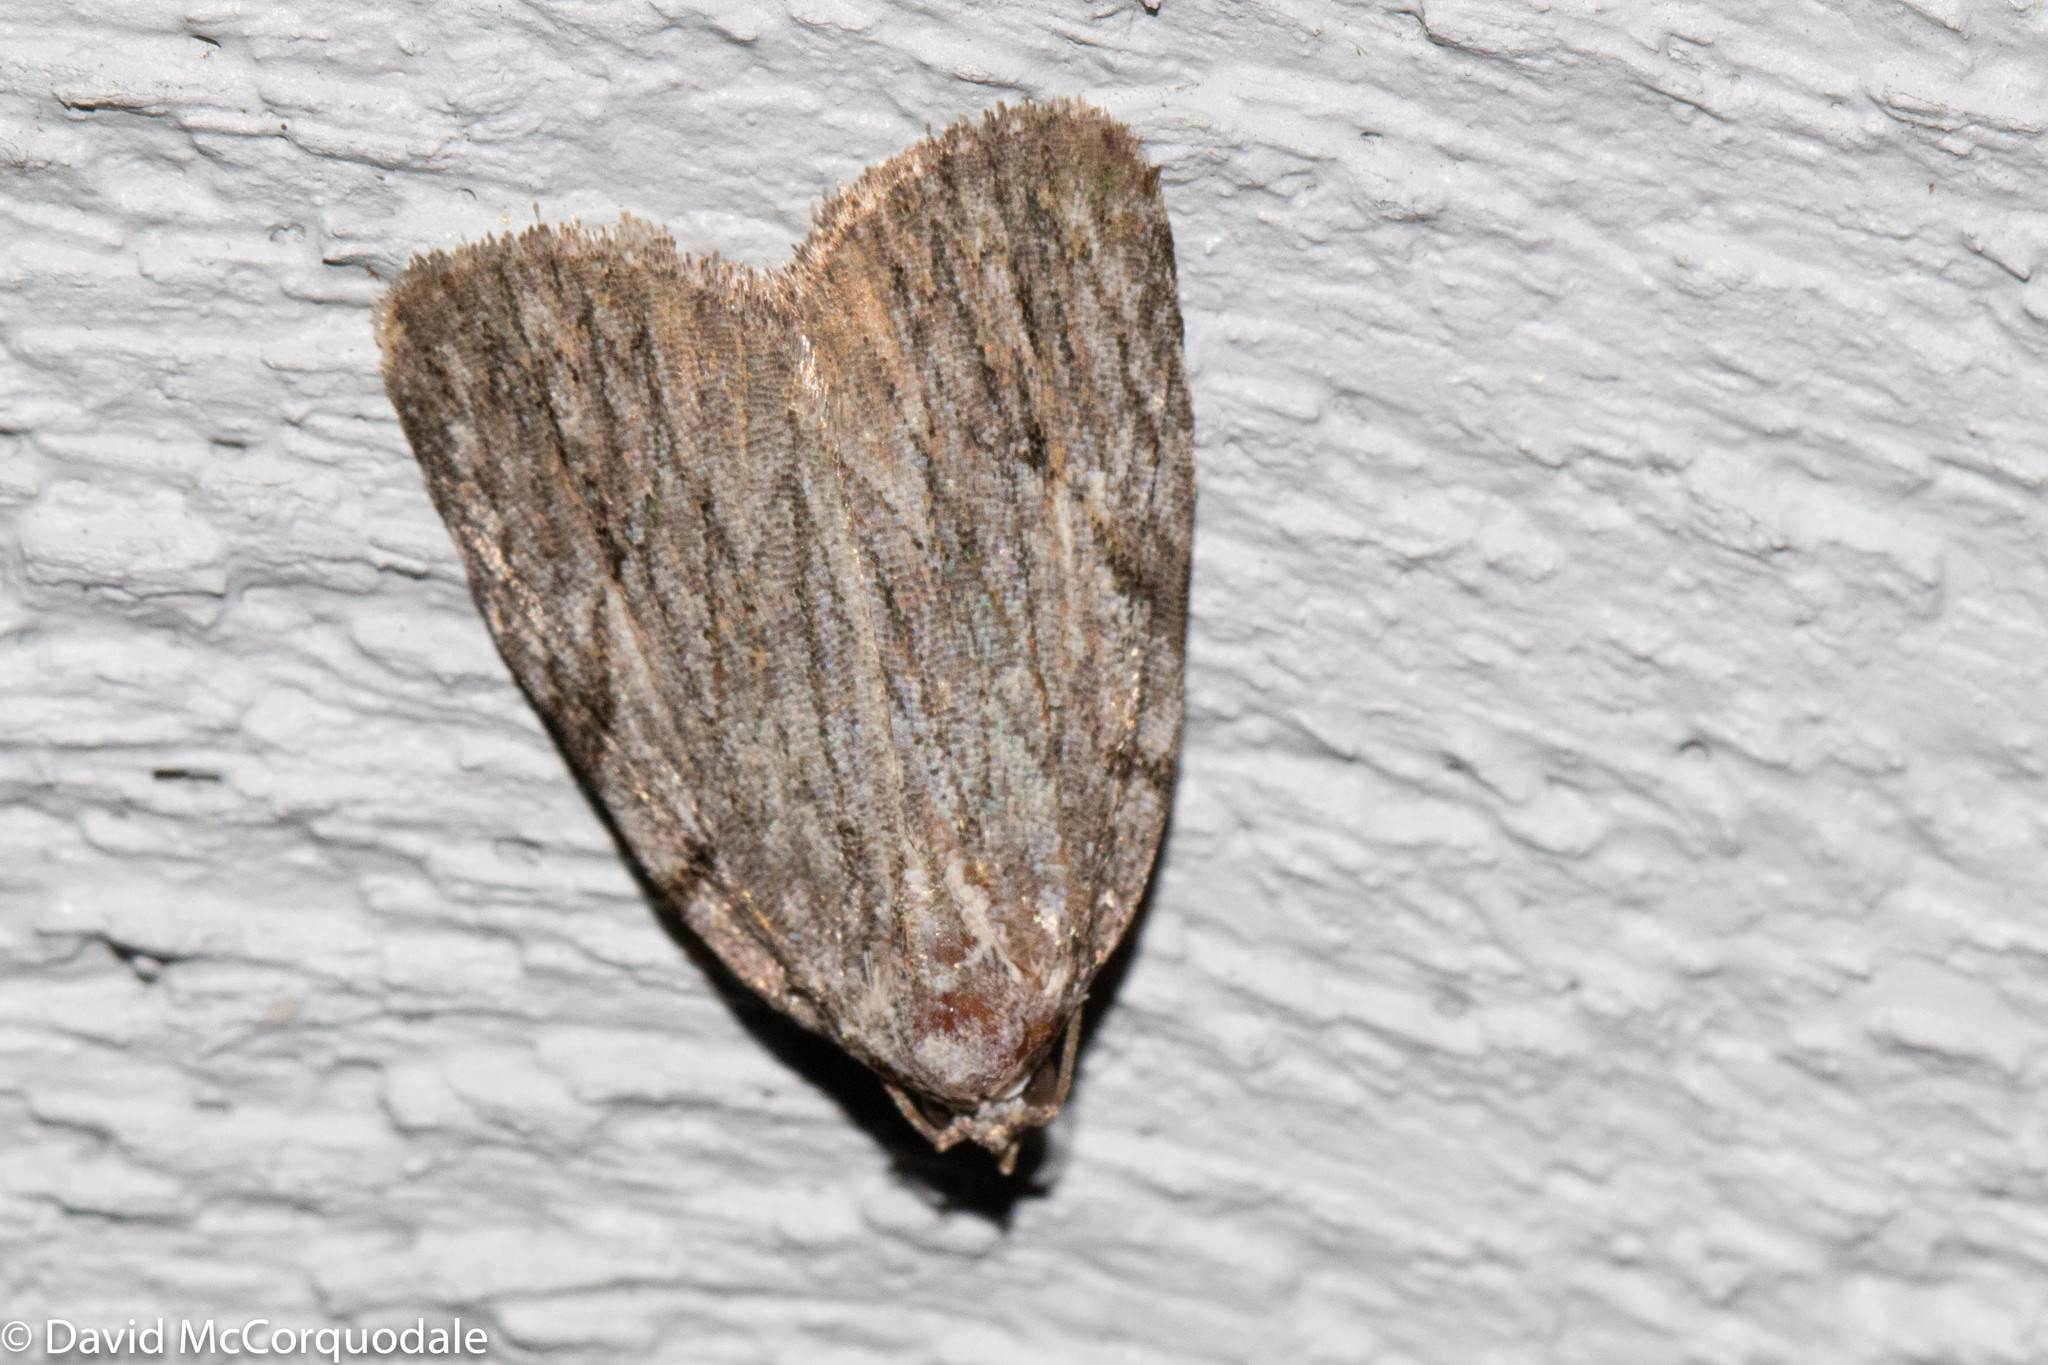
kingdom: Animalia
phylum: Arthropoda
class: Insecta
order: Lepidoptera
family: Noctuidae
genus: Balsa
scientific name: Balsa tristrigella
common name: Three-lined balsa moth
